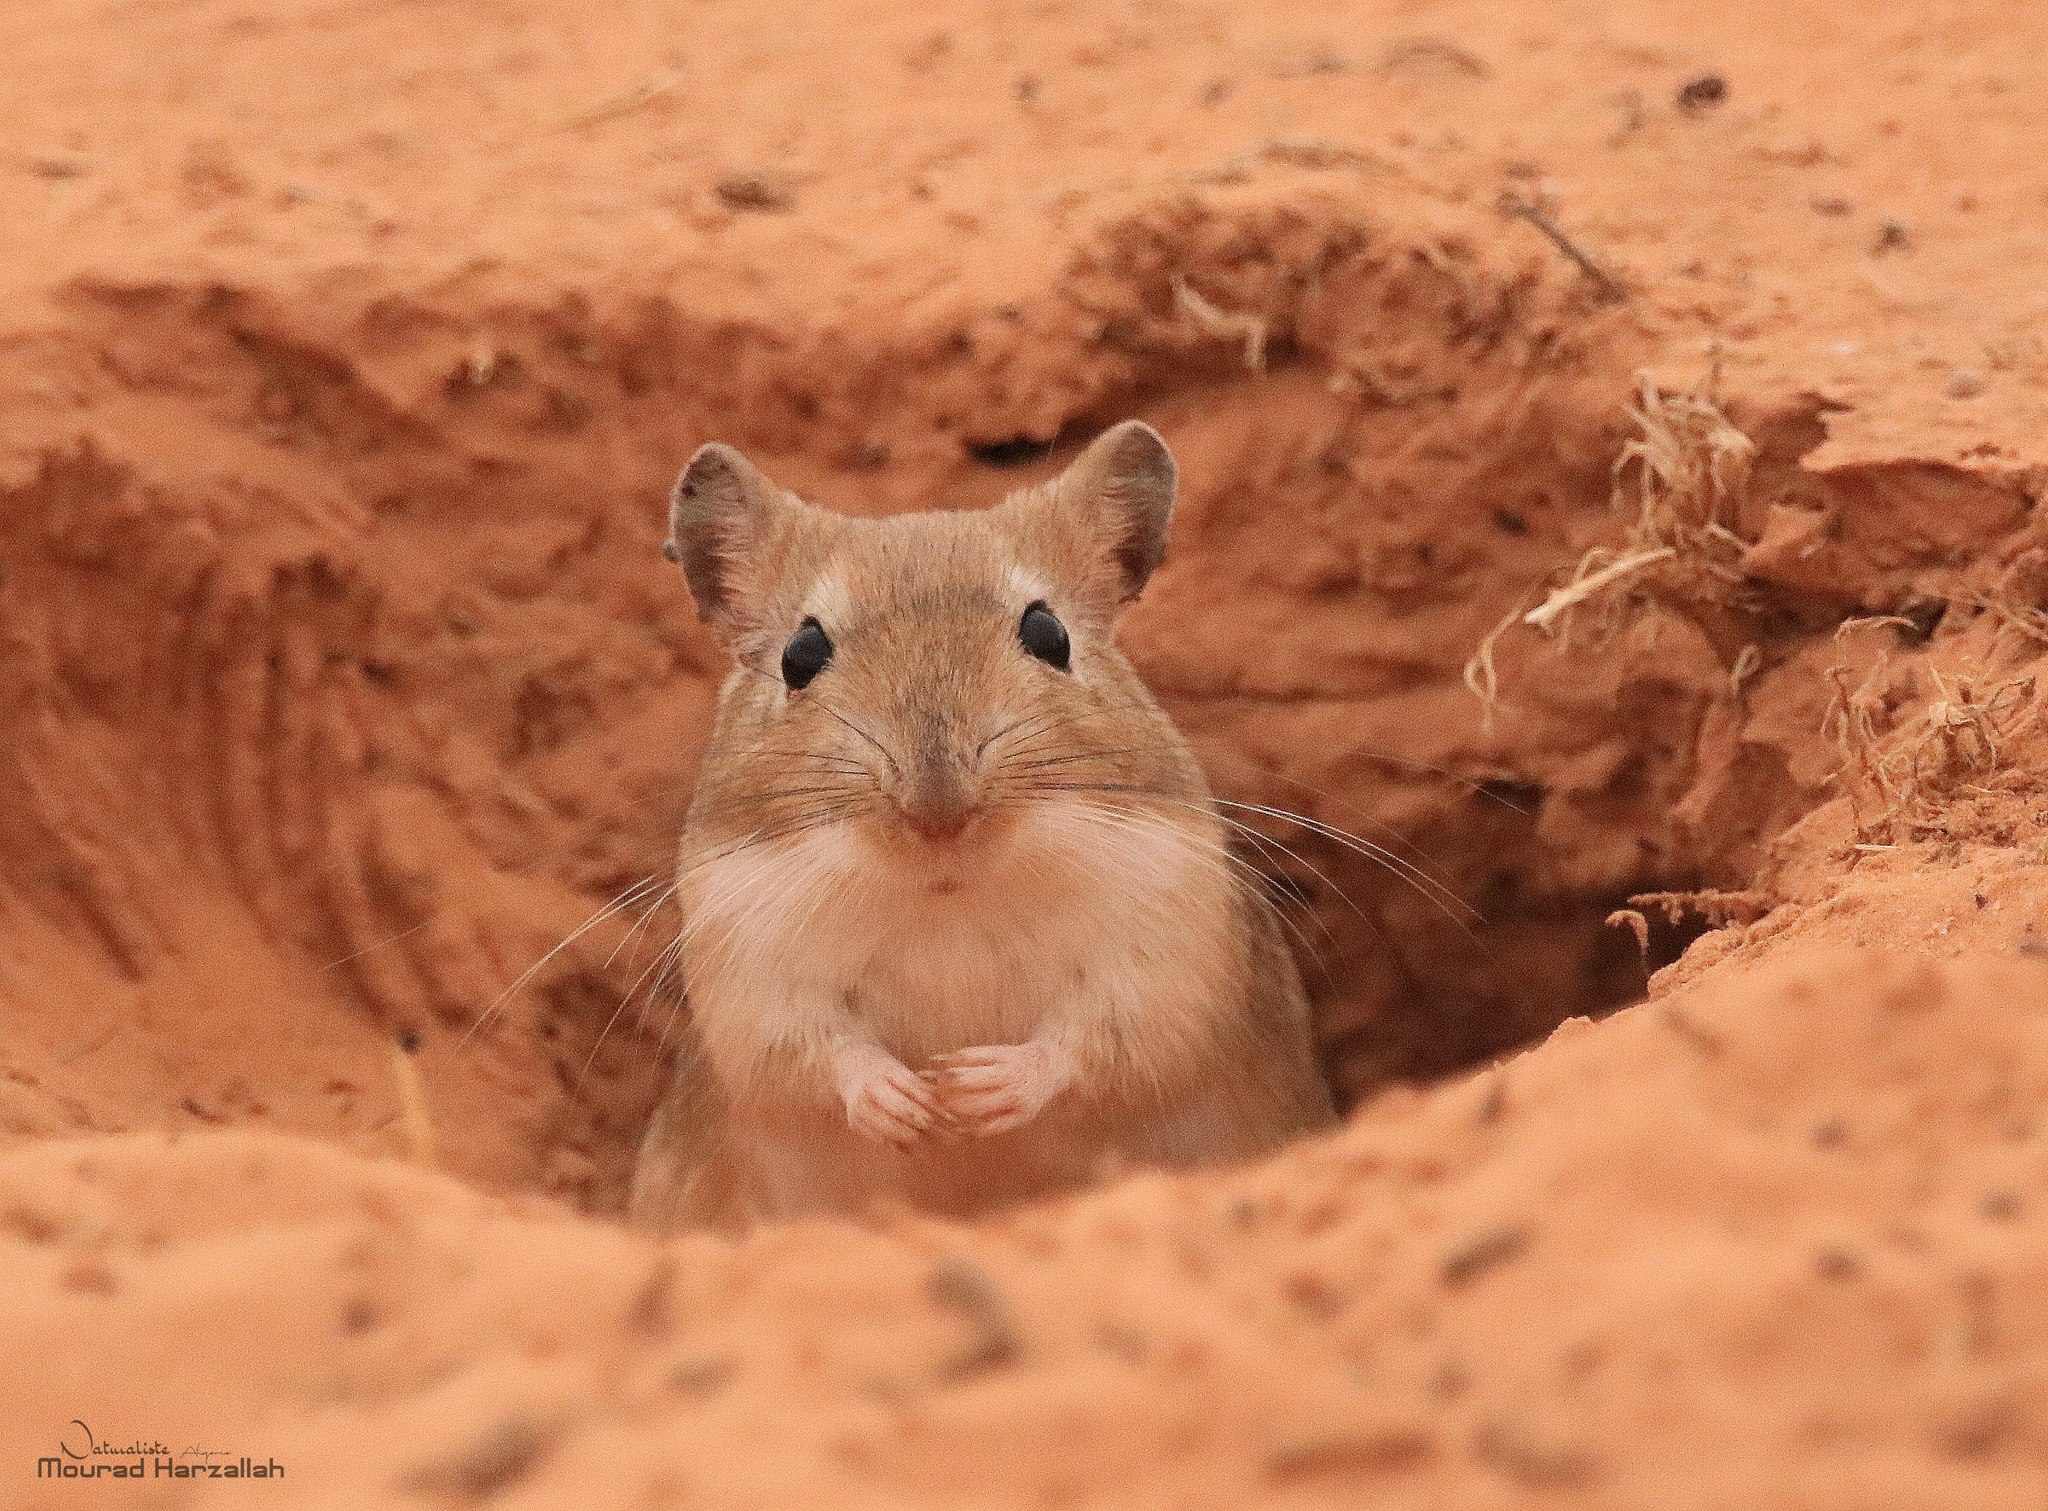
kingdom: Animalia
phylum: Chordata
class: Mammalia
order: Rodentia
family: Muridae
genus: Meriones
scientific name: Meriones crassus
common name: Sundevall's jird
